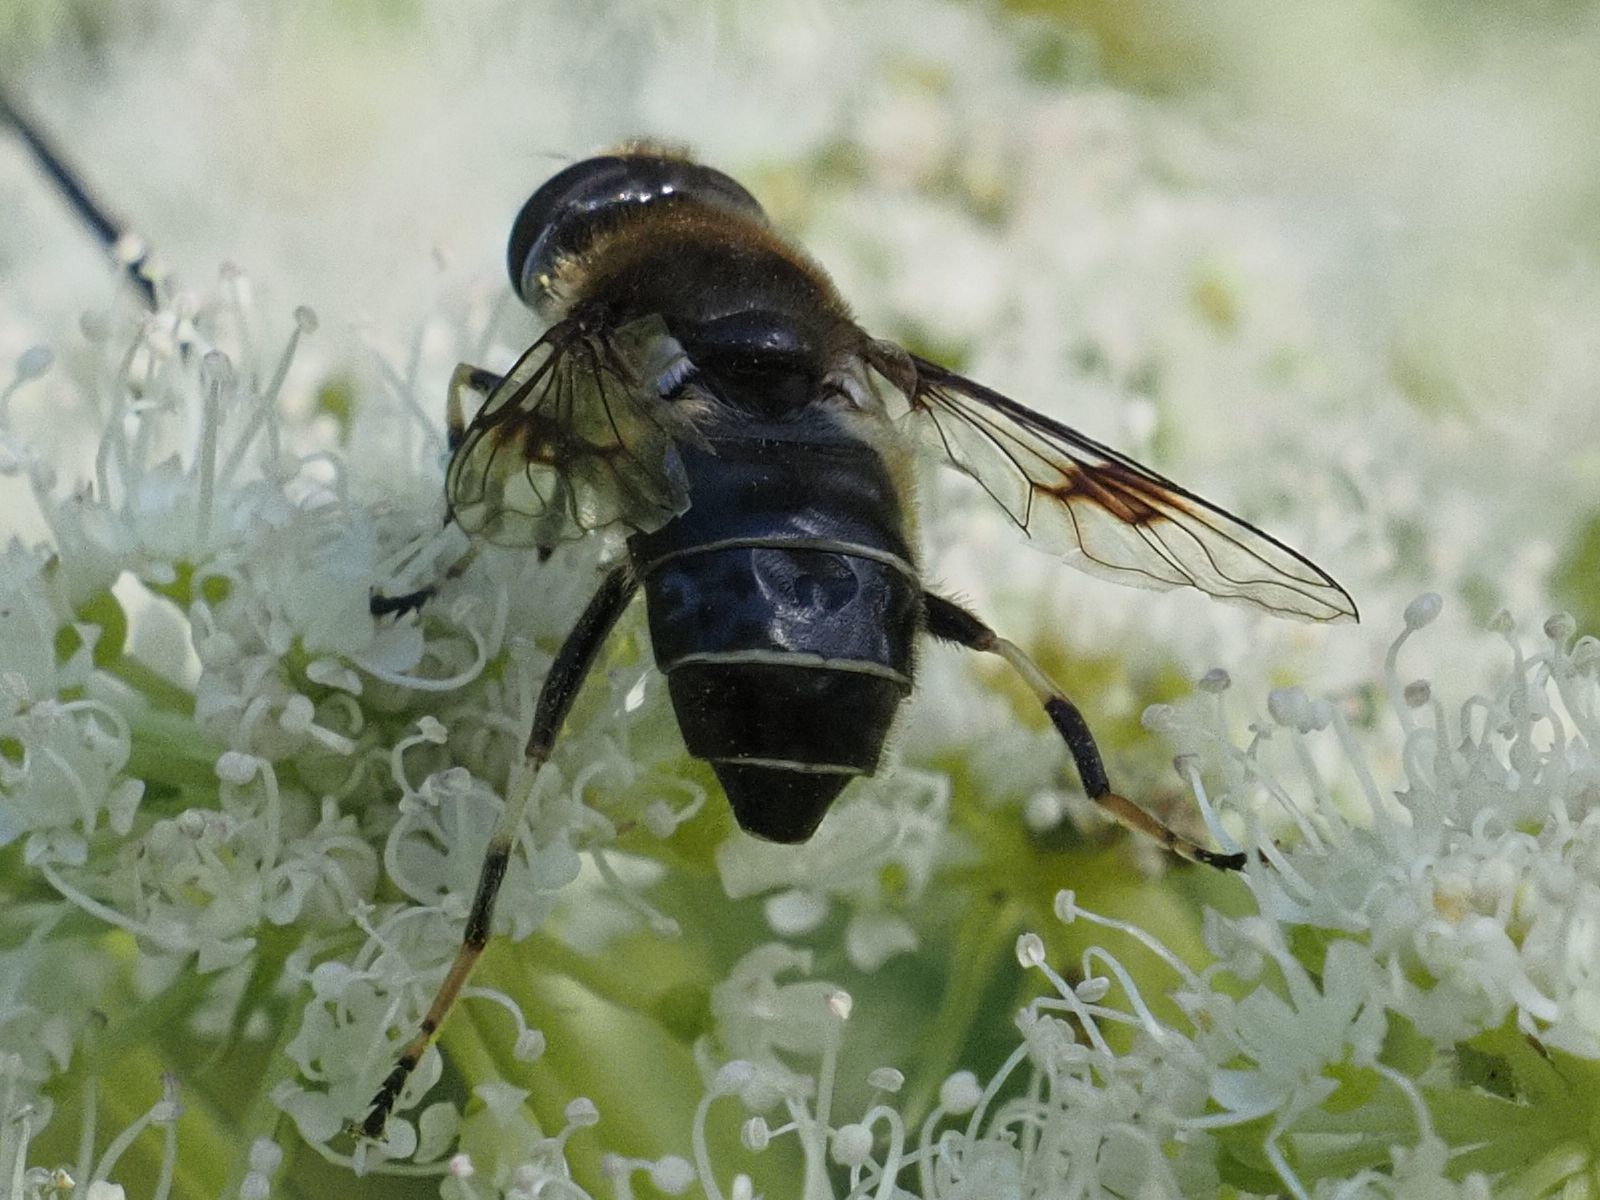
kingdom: Animalia
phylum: Arthropoda
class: Insecta
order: Diptera
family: Syrphidae
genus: Eristalis
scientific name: Eristalis rupium
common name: Hover fly
